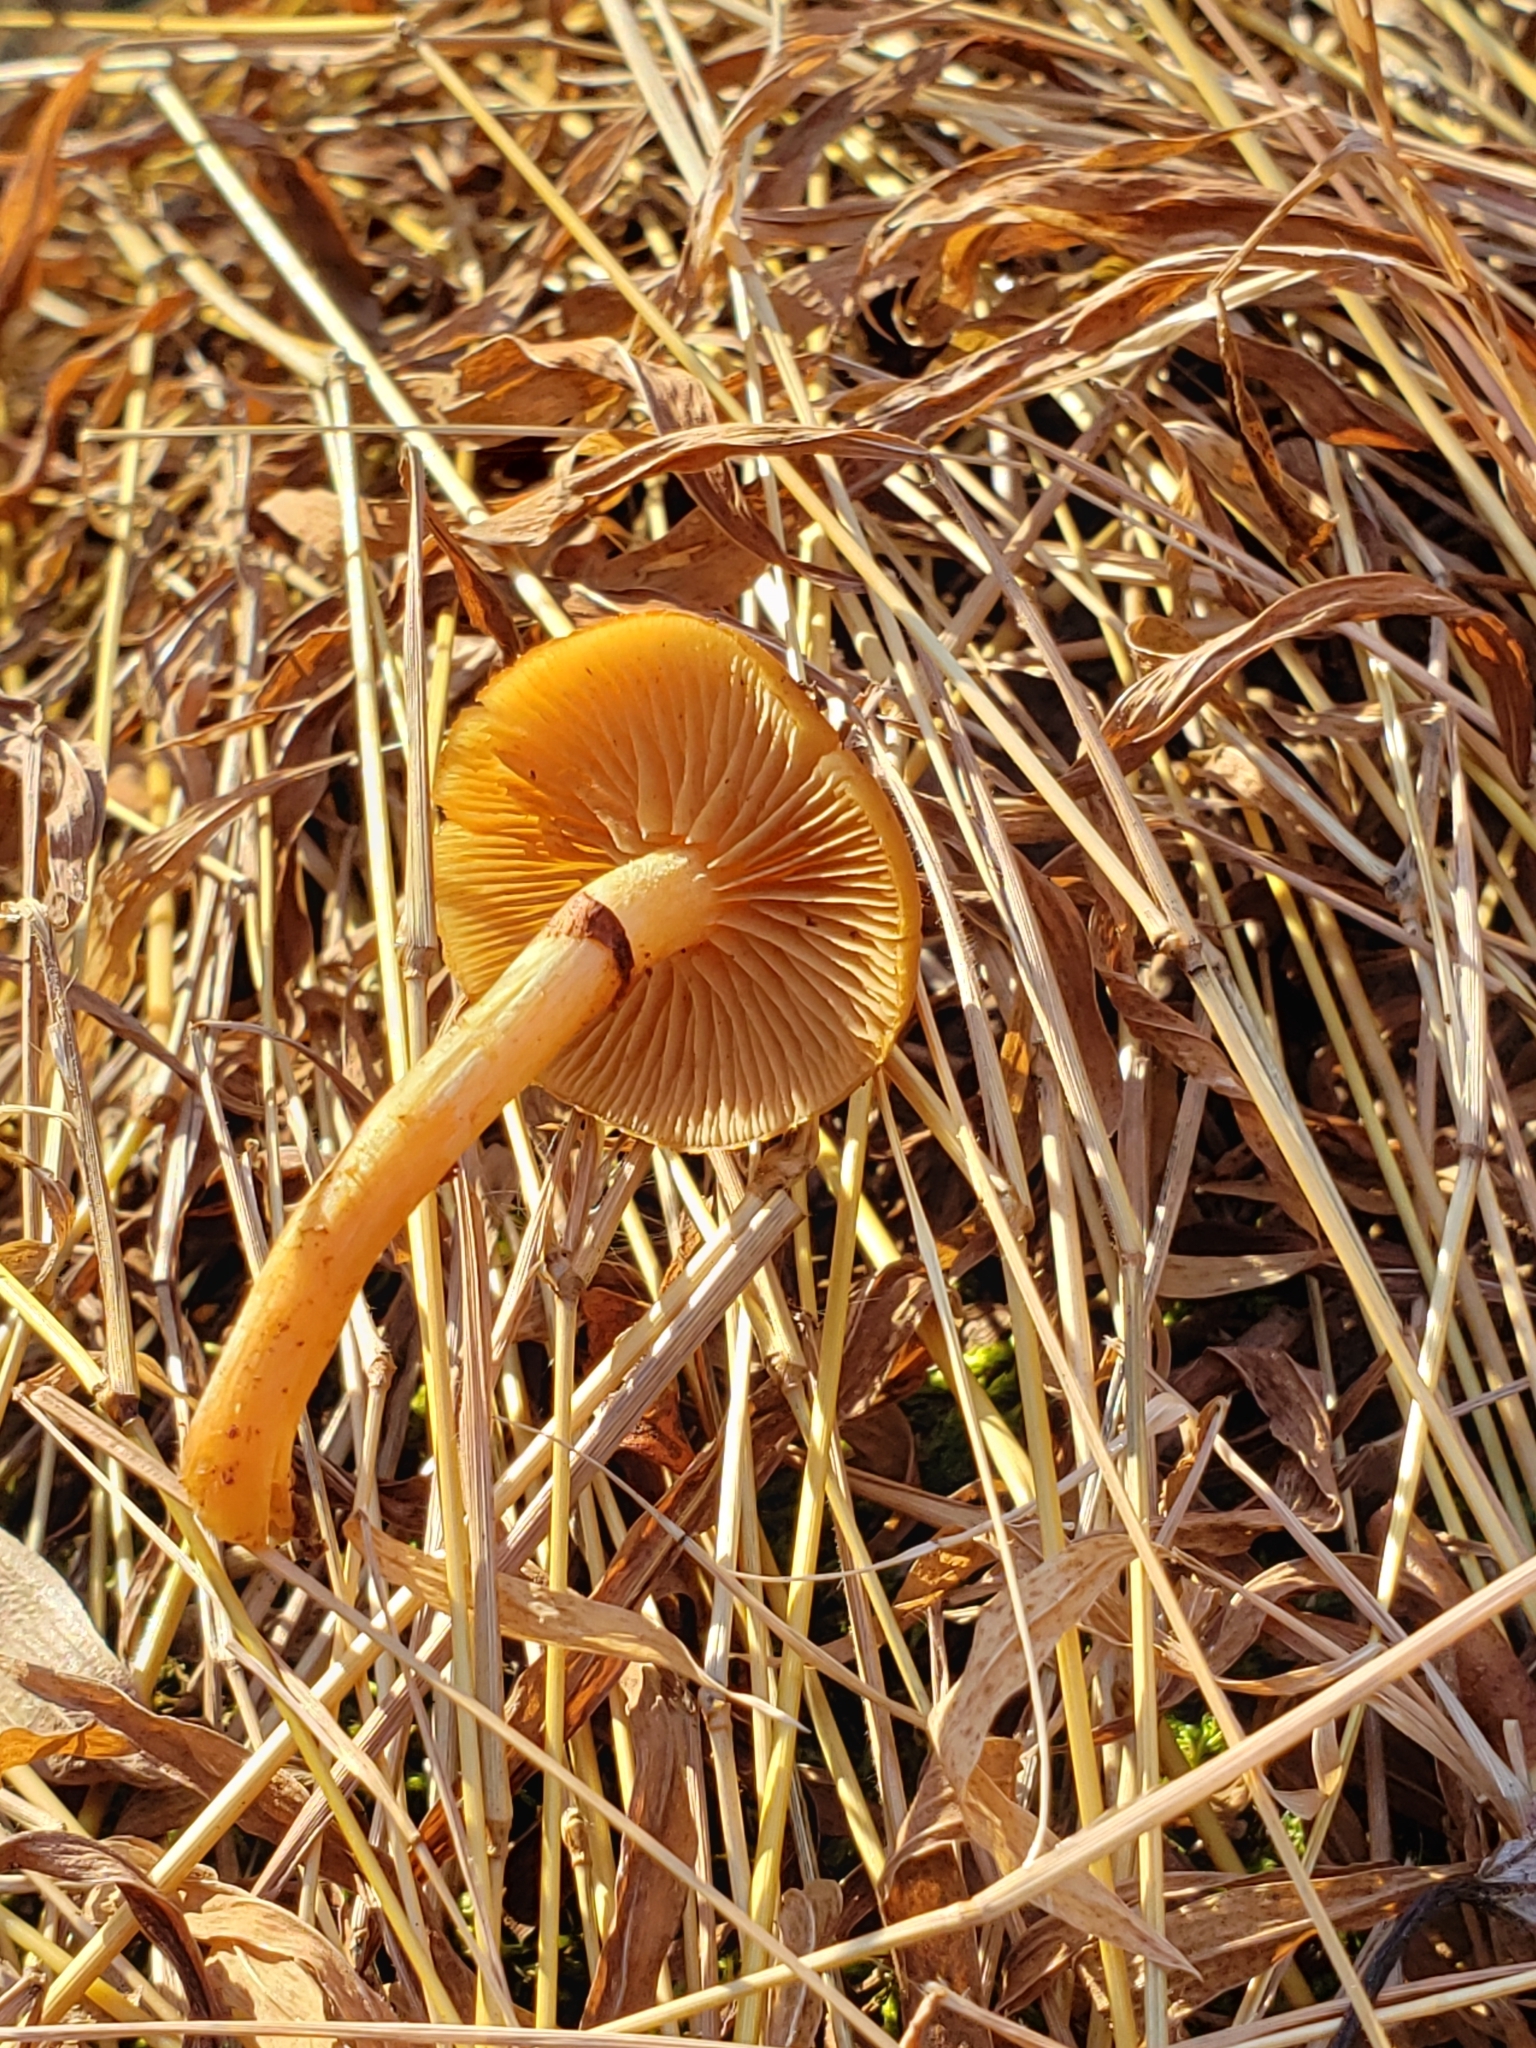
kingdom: Fungi
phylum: Basidiomycota
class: Agaricomycetes
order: Agaricales
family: Hymenogastraceae
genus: Galerina
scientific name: Galerina marginata
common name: Funeral bell
